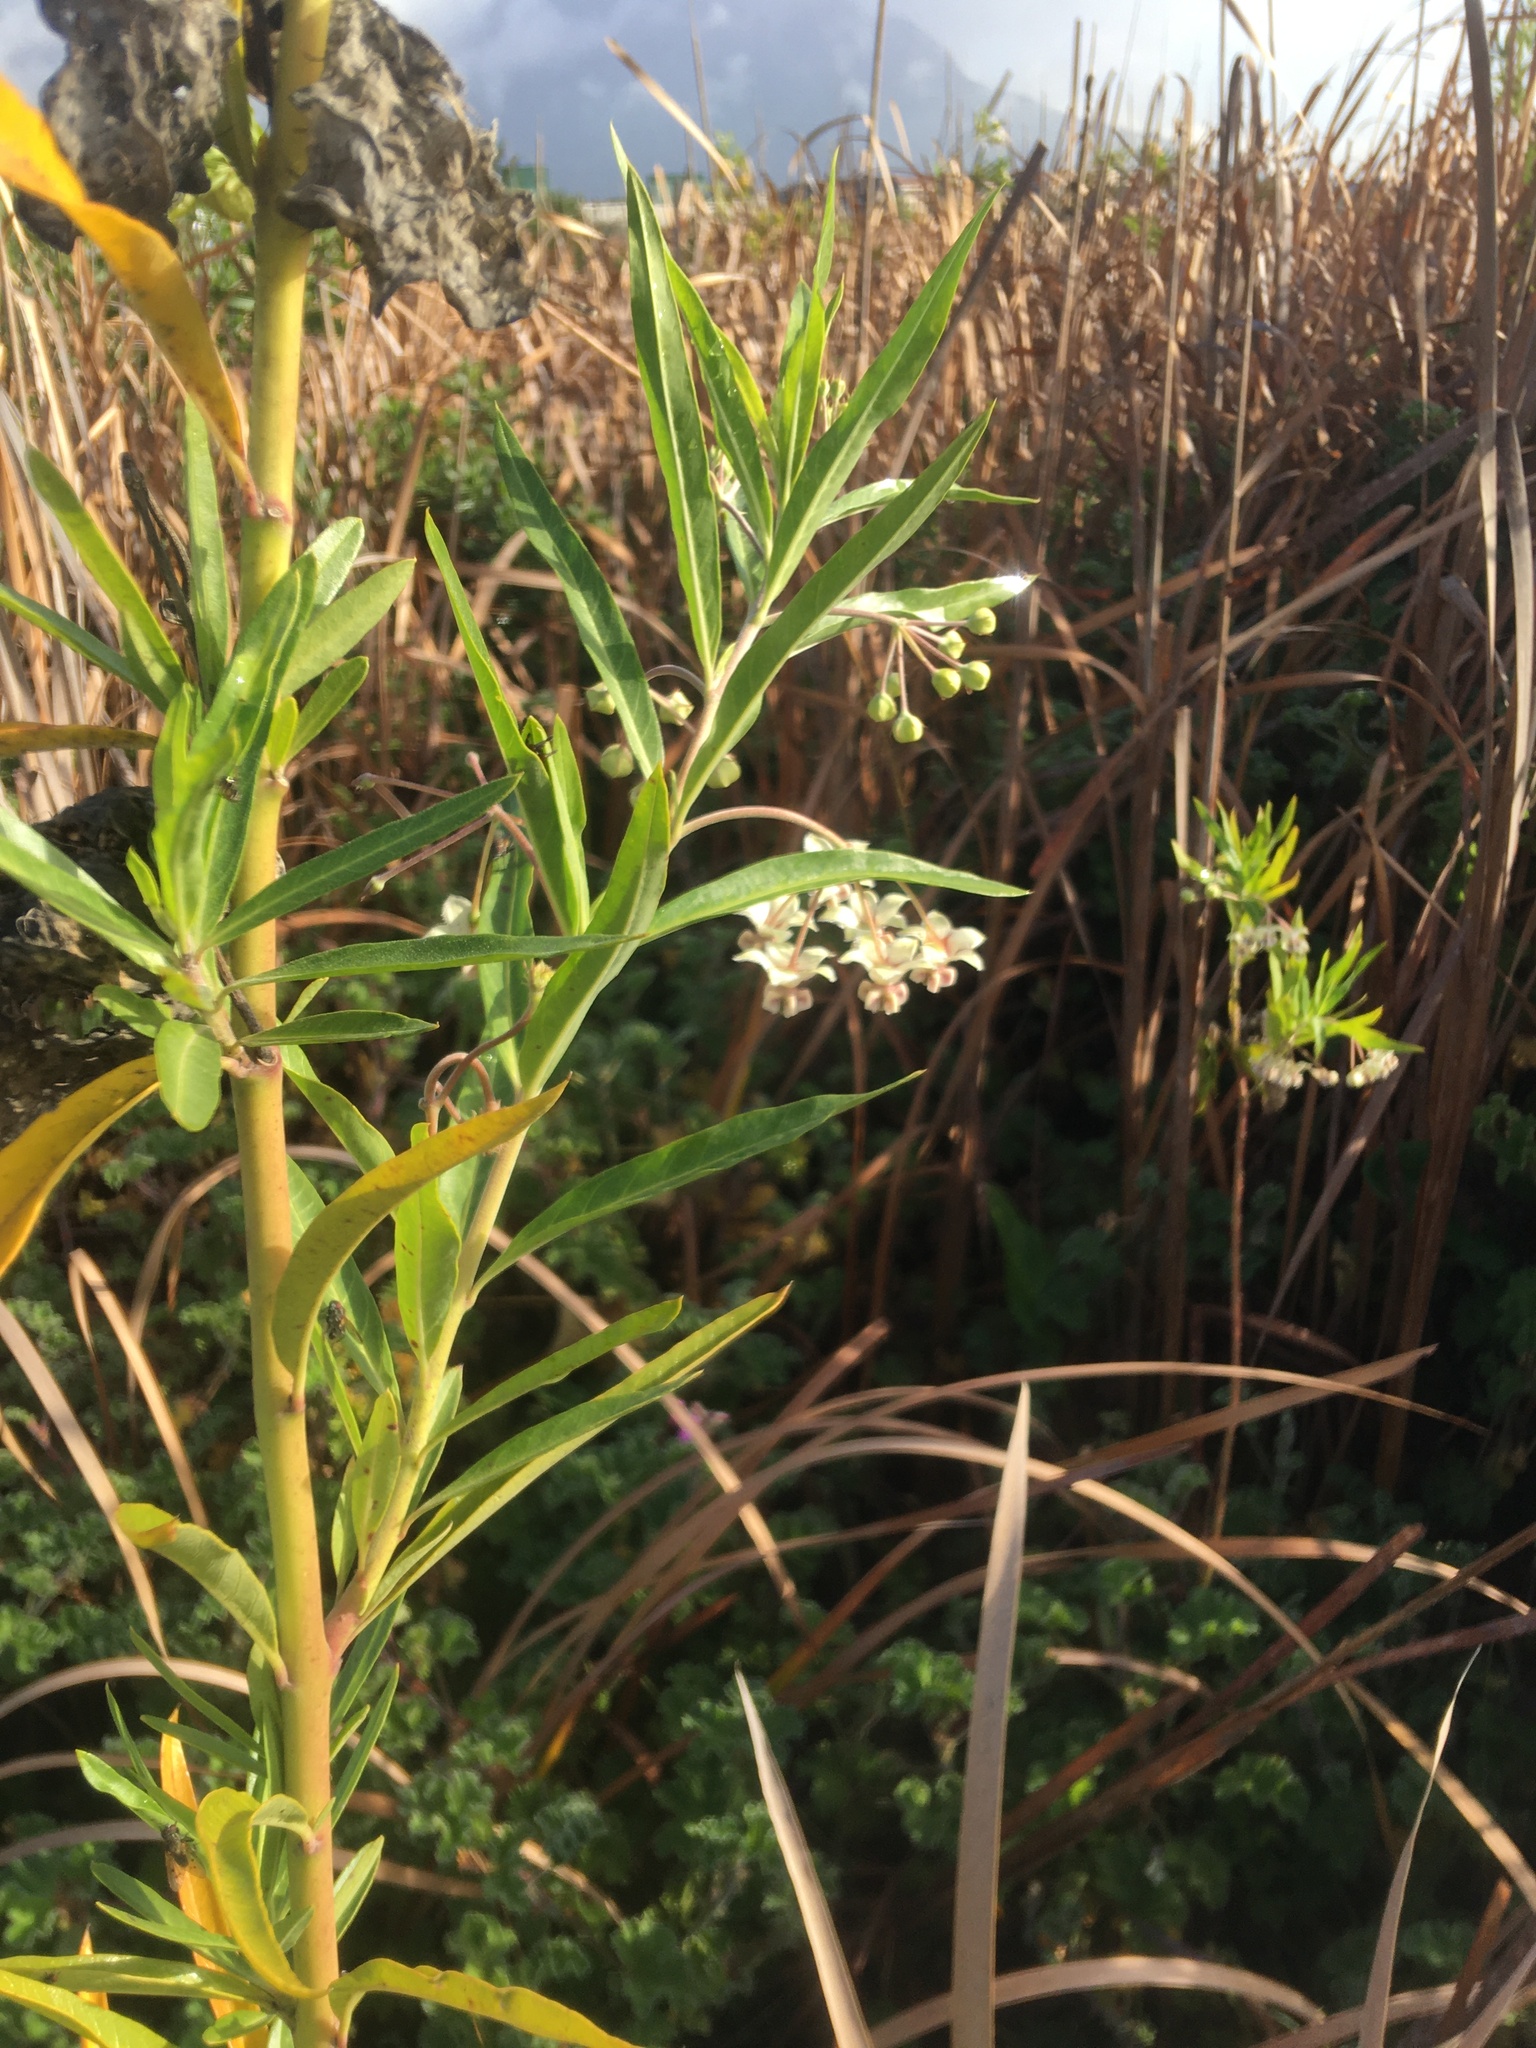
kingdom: Plantae
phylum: Tracheophyta
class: Magnoliopsida
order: Gentianales
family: Apocynaceae
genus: Gomphocarpus
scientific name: Gomphocarpus physocarpus
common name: Balloon cotton bush
